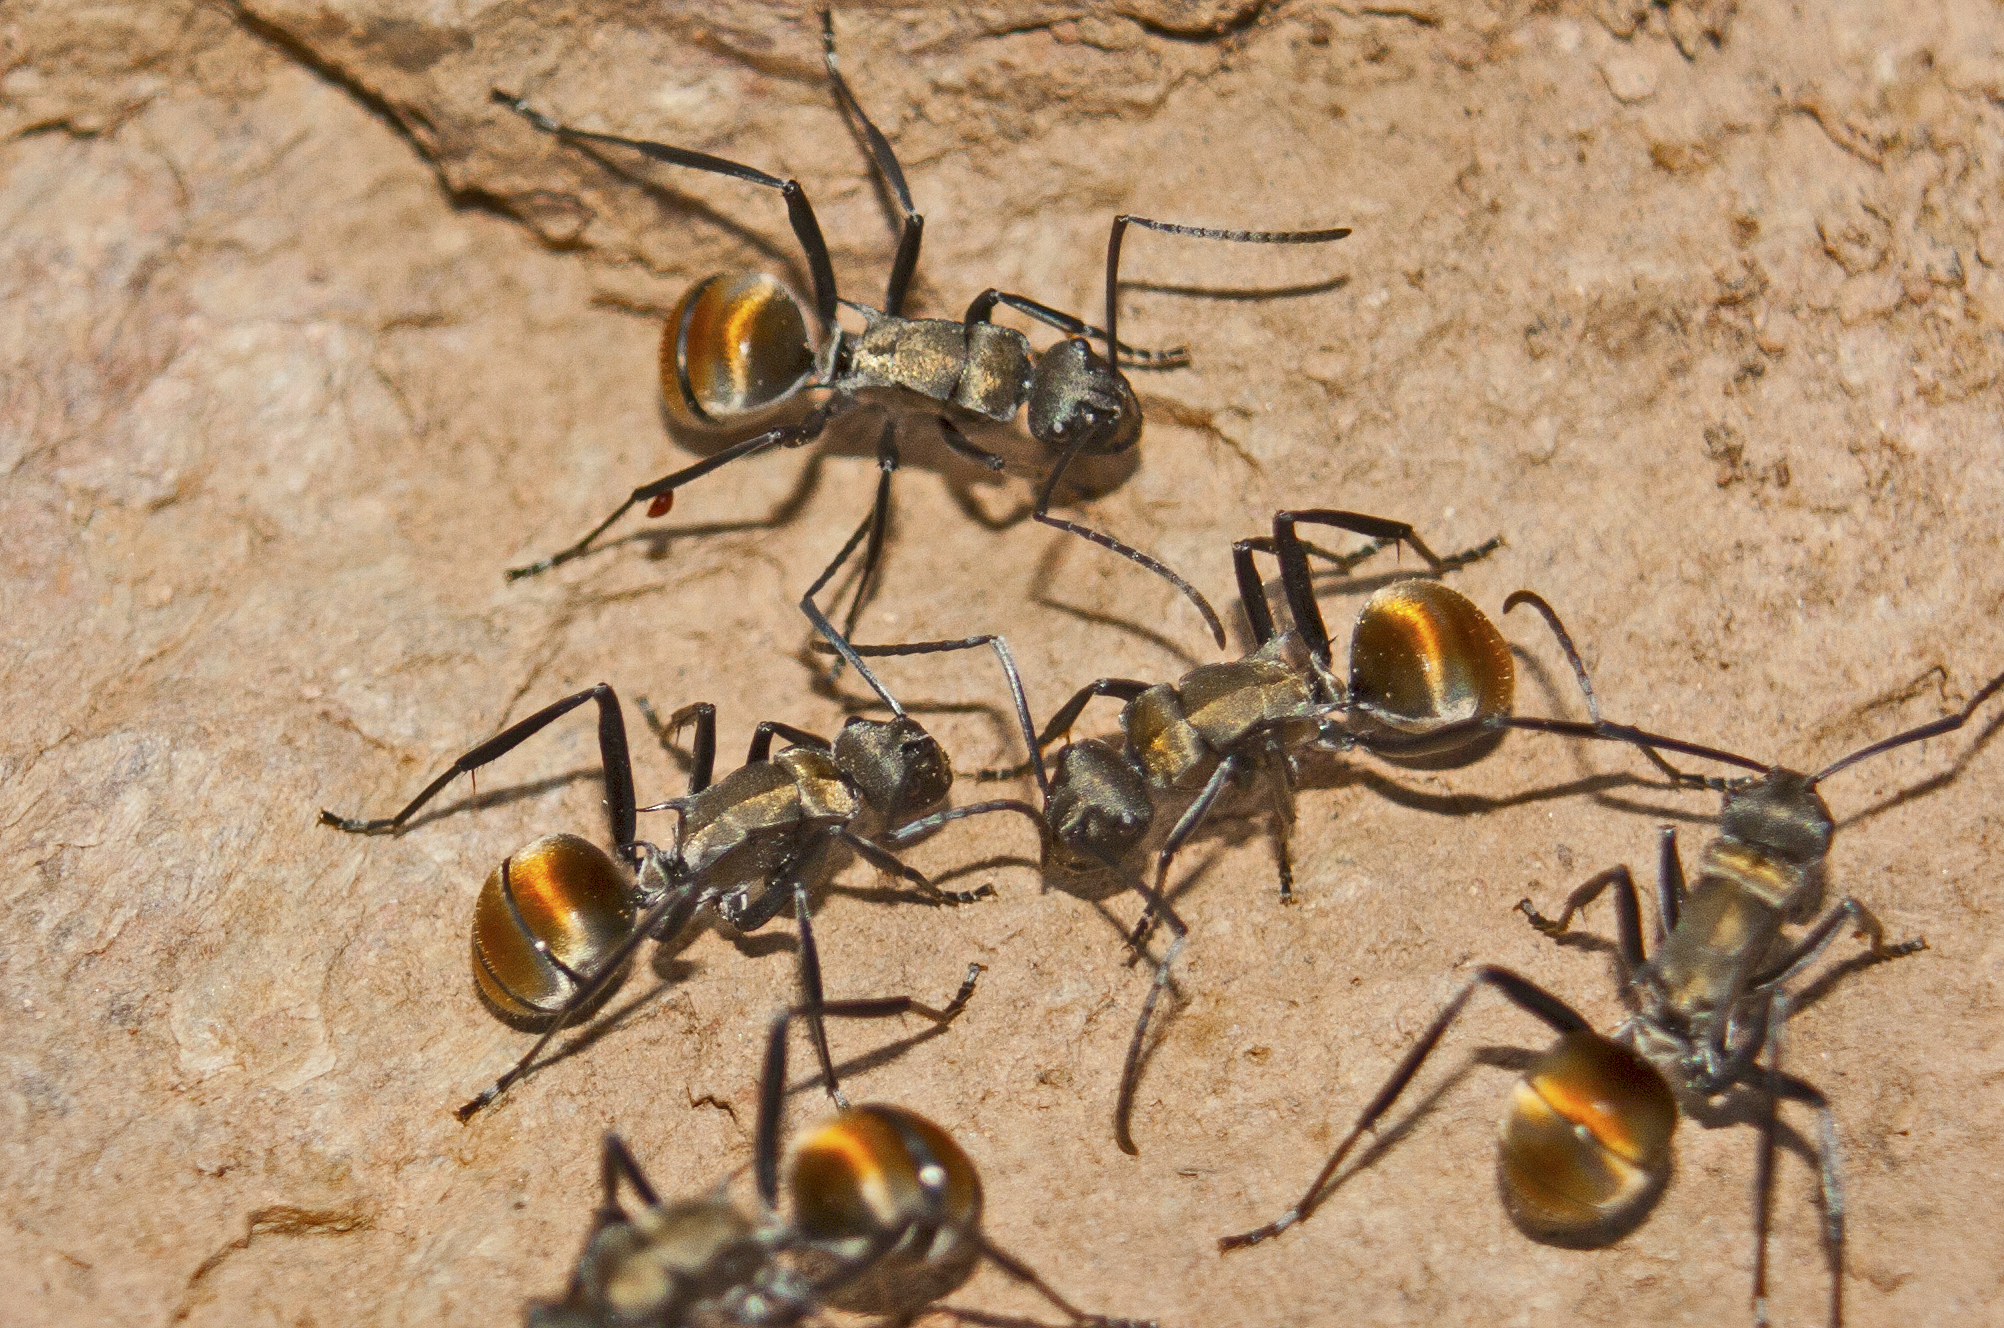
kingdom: Animalia
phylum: Arthropoda
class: Insecta
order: Hymenoptera
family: Formicidae
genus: Polyrhachis
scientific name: Polyrhachis ammon
